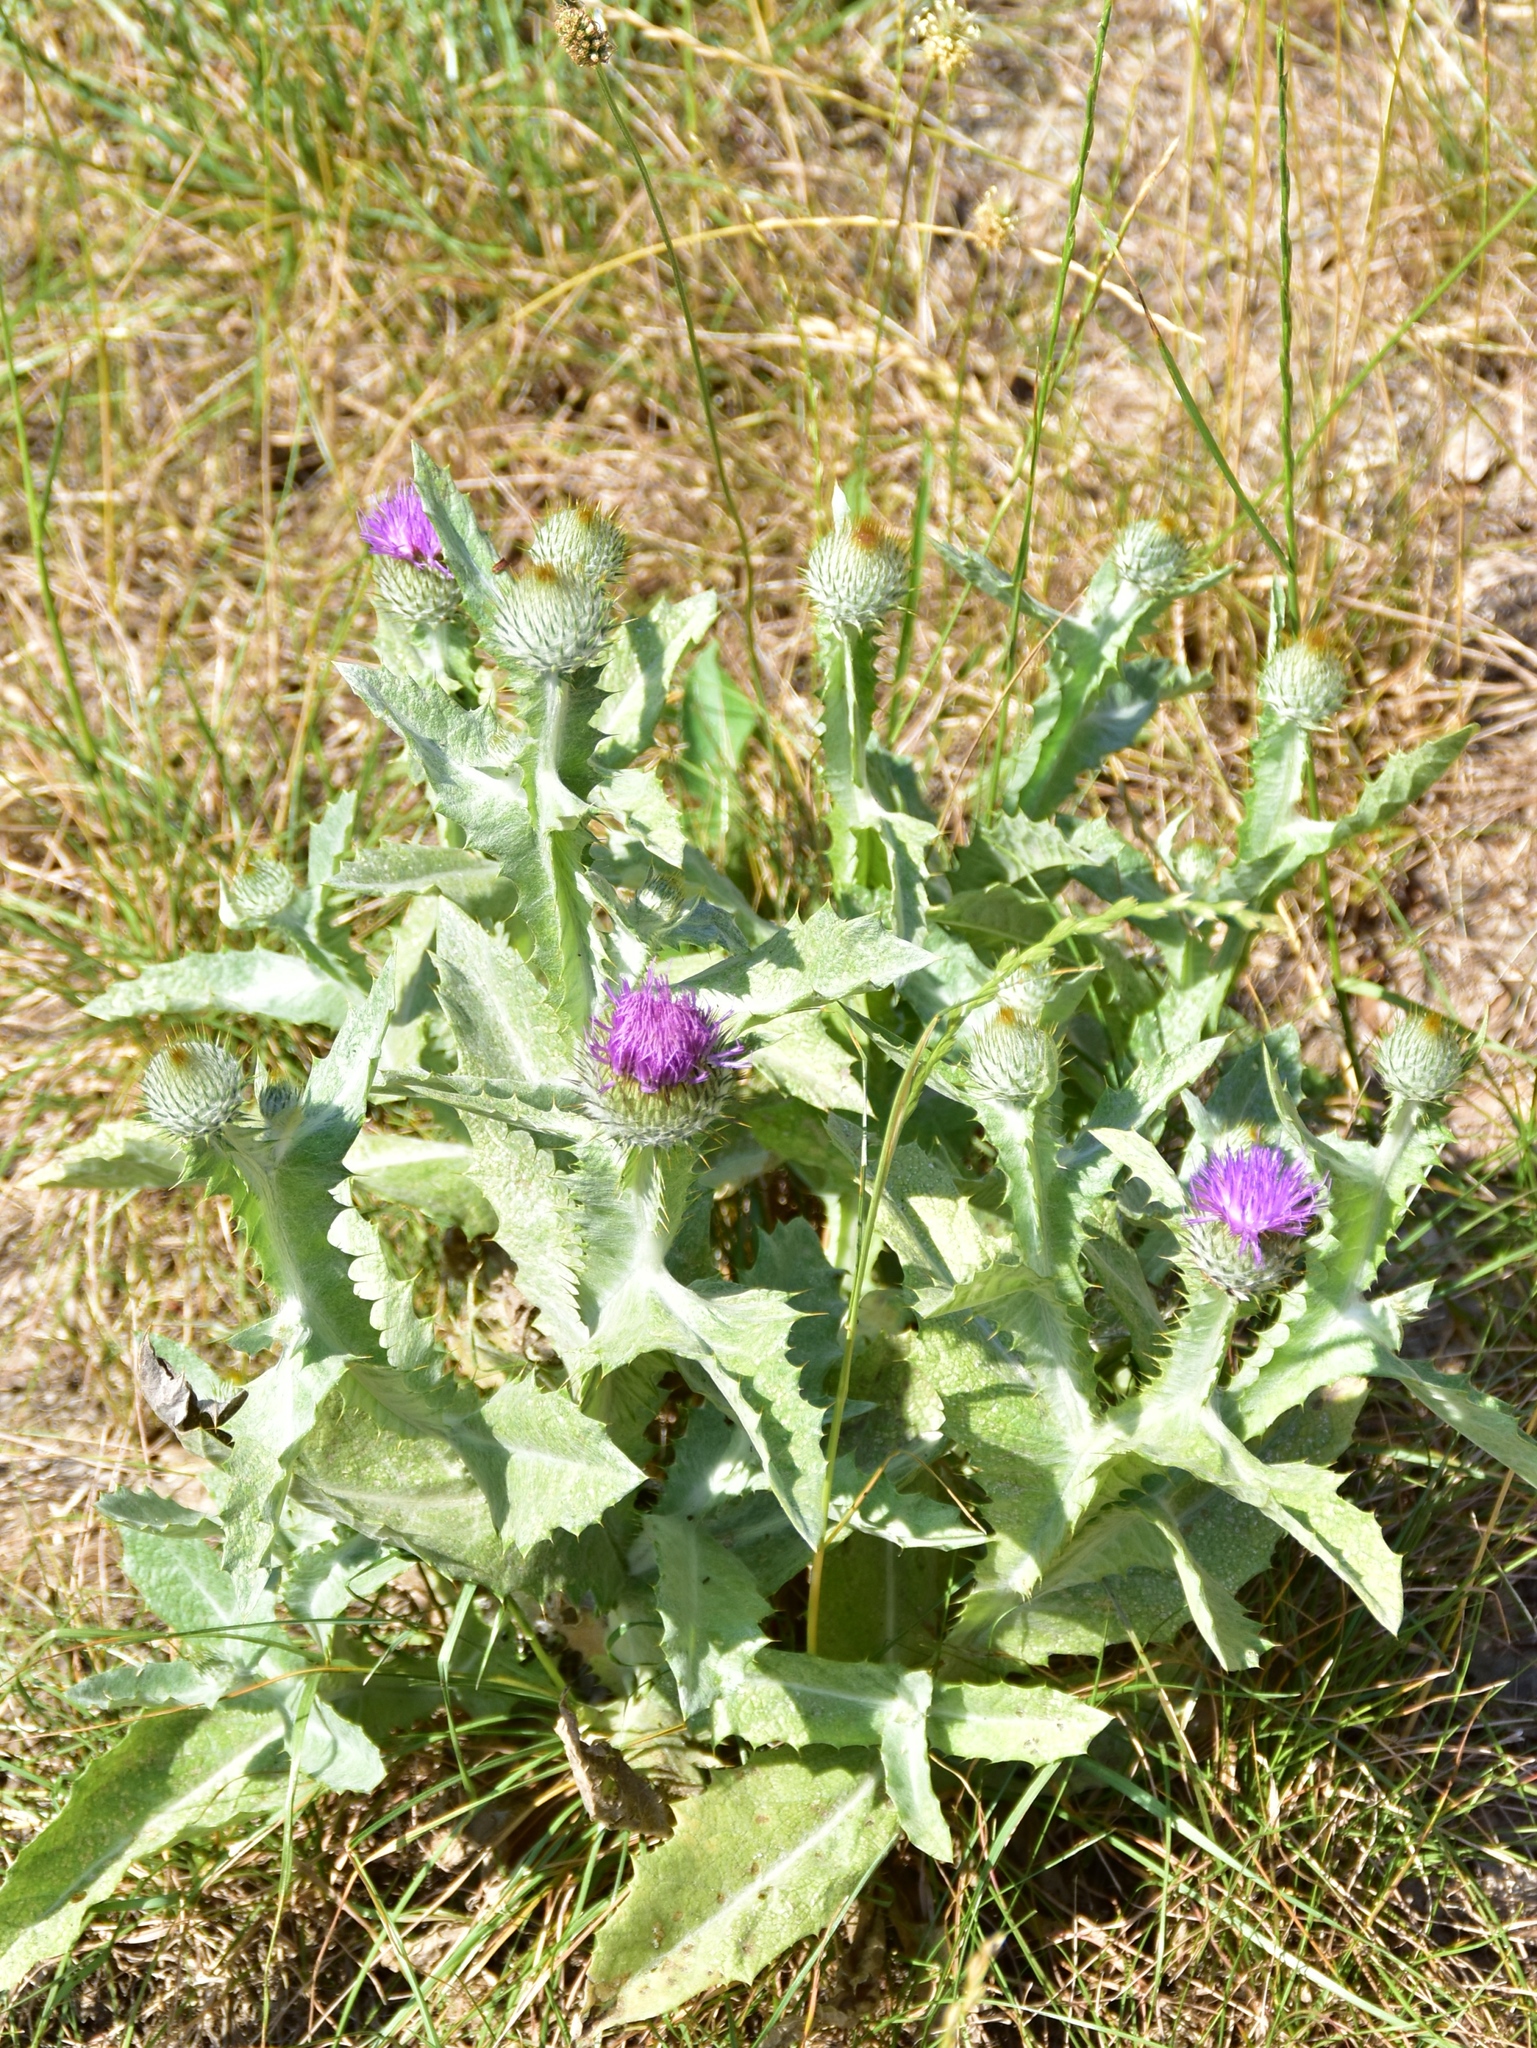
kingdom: Plantae
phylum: Tracheophyta
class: Magnoliopsida
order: Asterales
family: Asteraceae
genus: Onopordum
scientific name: Onopordum acanthium
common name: Scotch thistle
